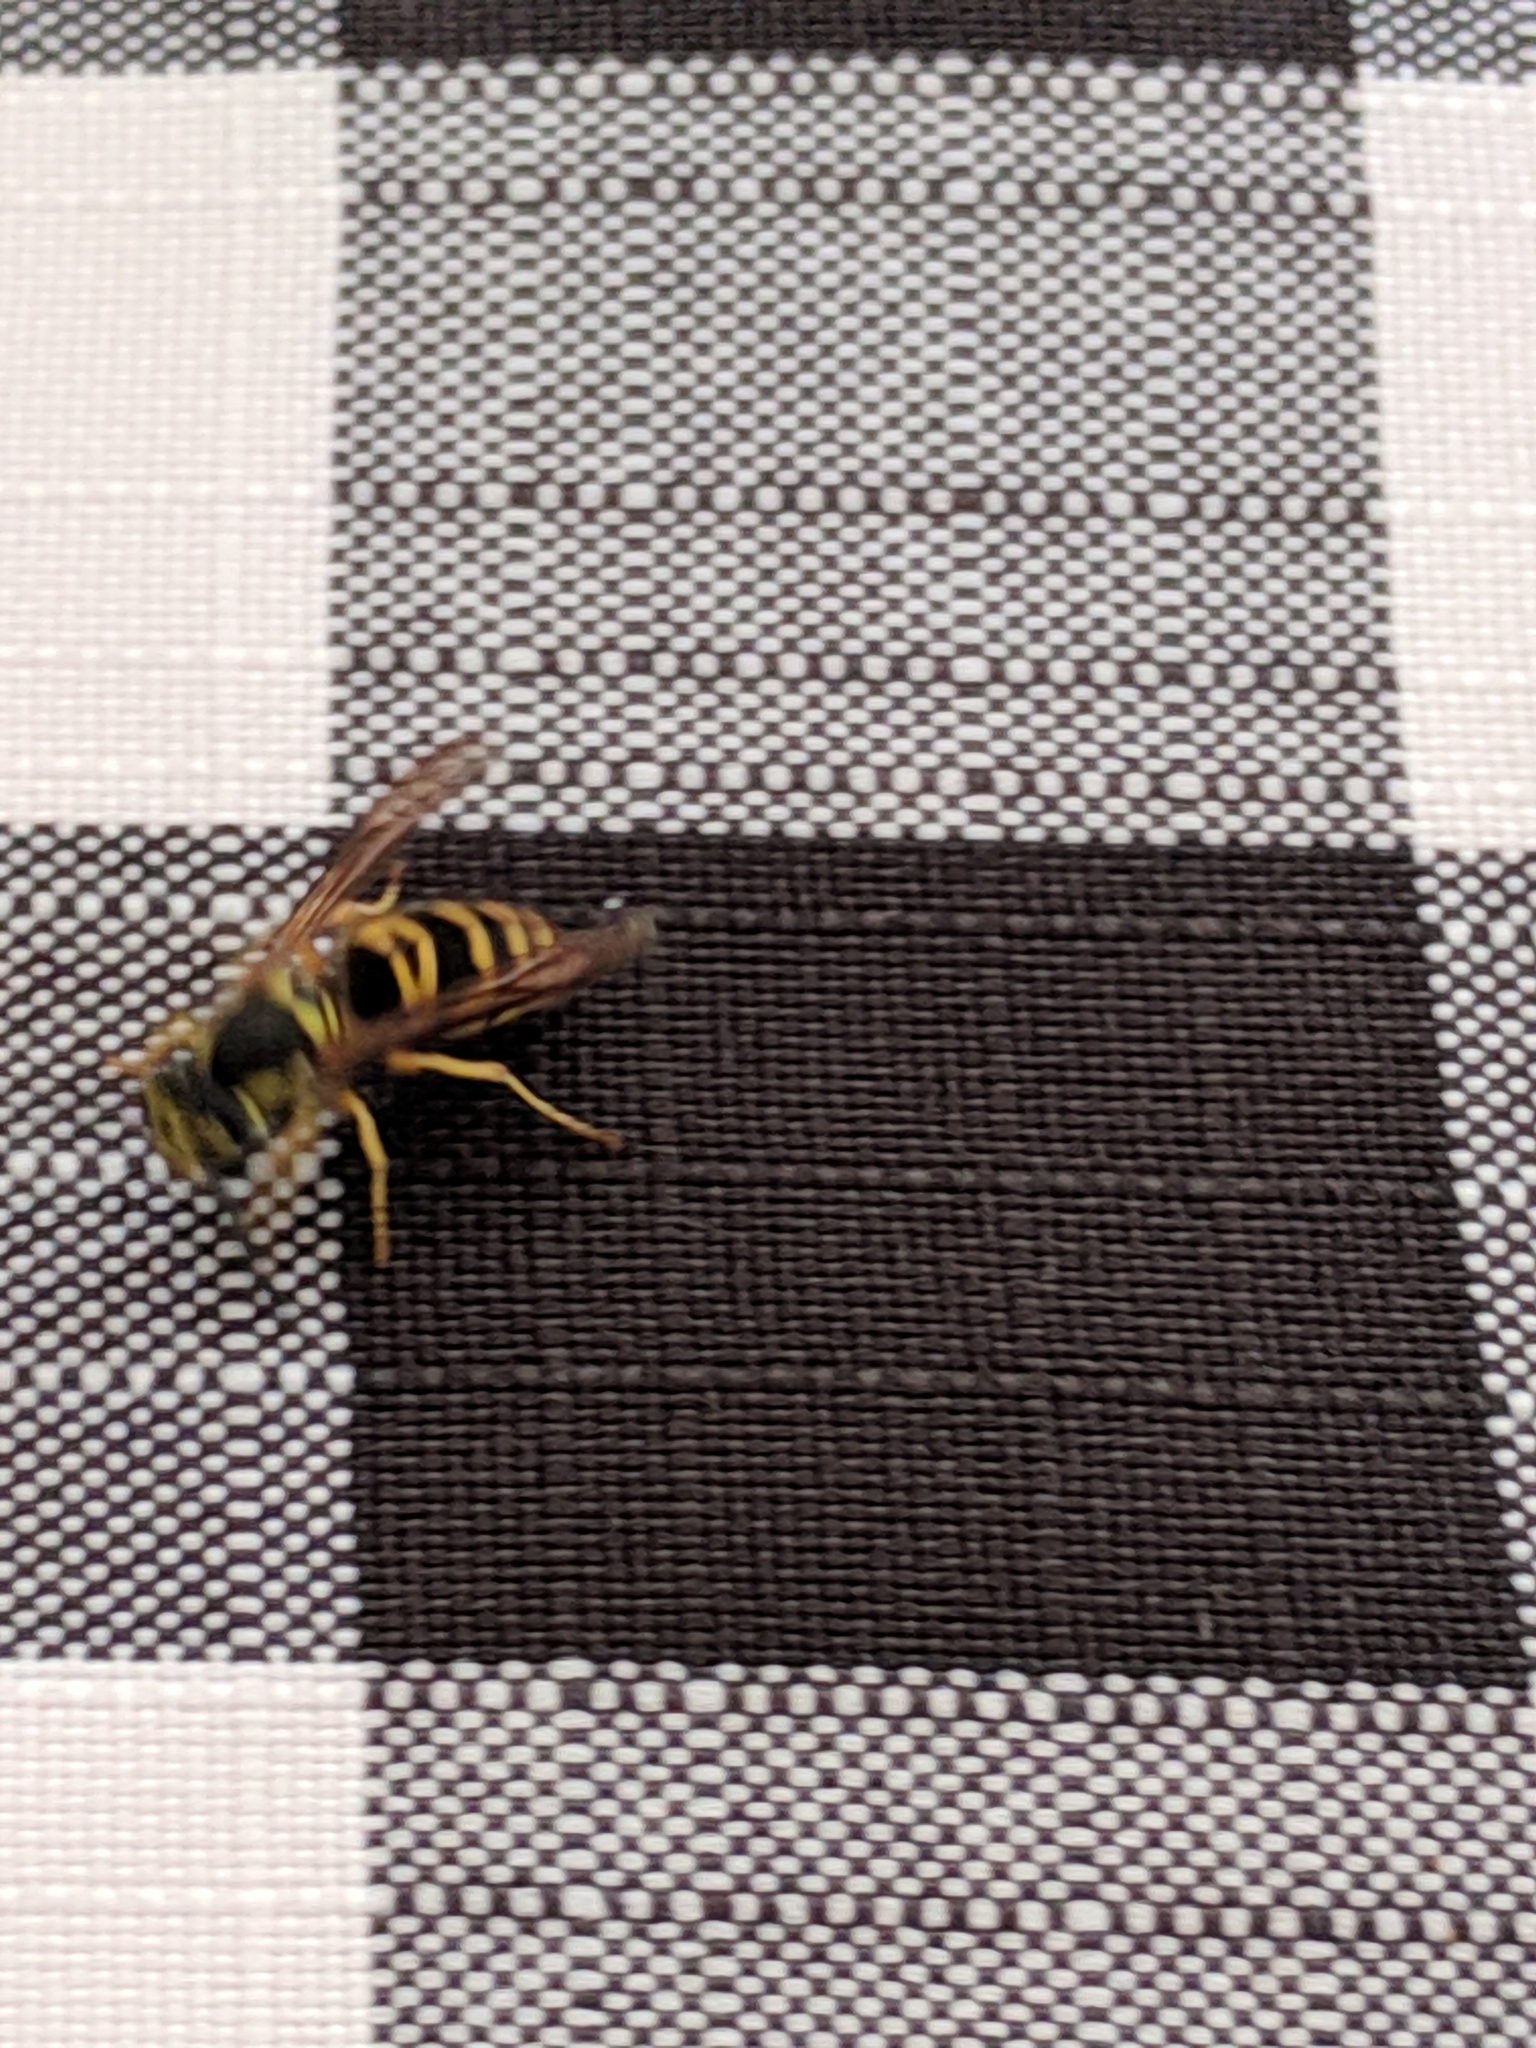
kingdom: Animalia
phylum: Arthropoda
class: Insecta
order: Hymenoptera
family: Vespidae
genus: Vespula
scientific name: Vespula maculifrons
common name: Eastern yellowjacket
